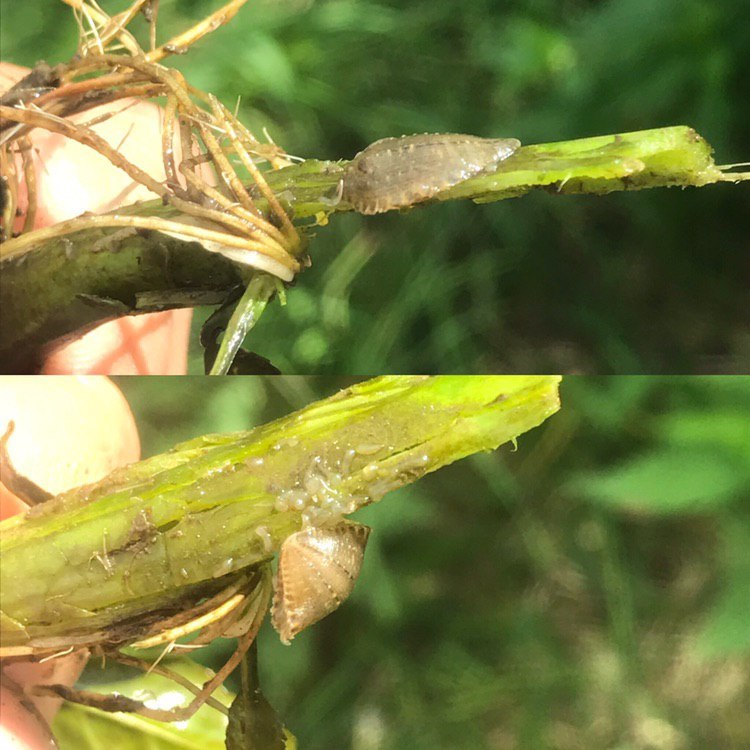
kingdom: Animalia
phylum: Annelida
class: Clitellata
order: Rhynchobdellida
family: Glossiphoniidae
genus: Glossiphonia
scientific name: Glossiphonia complanata
